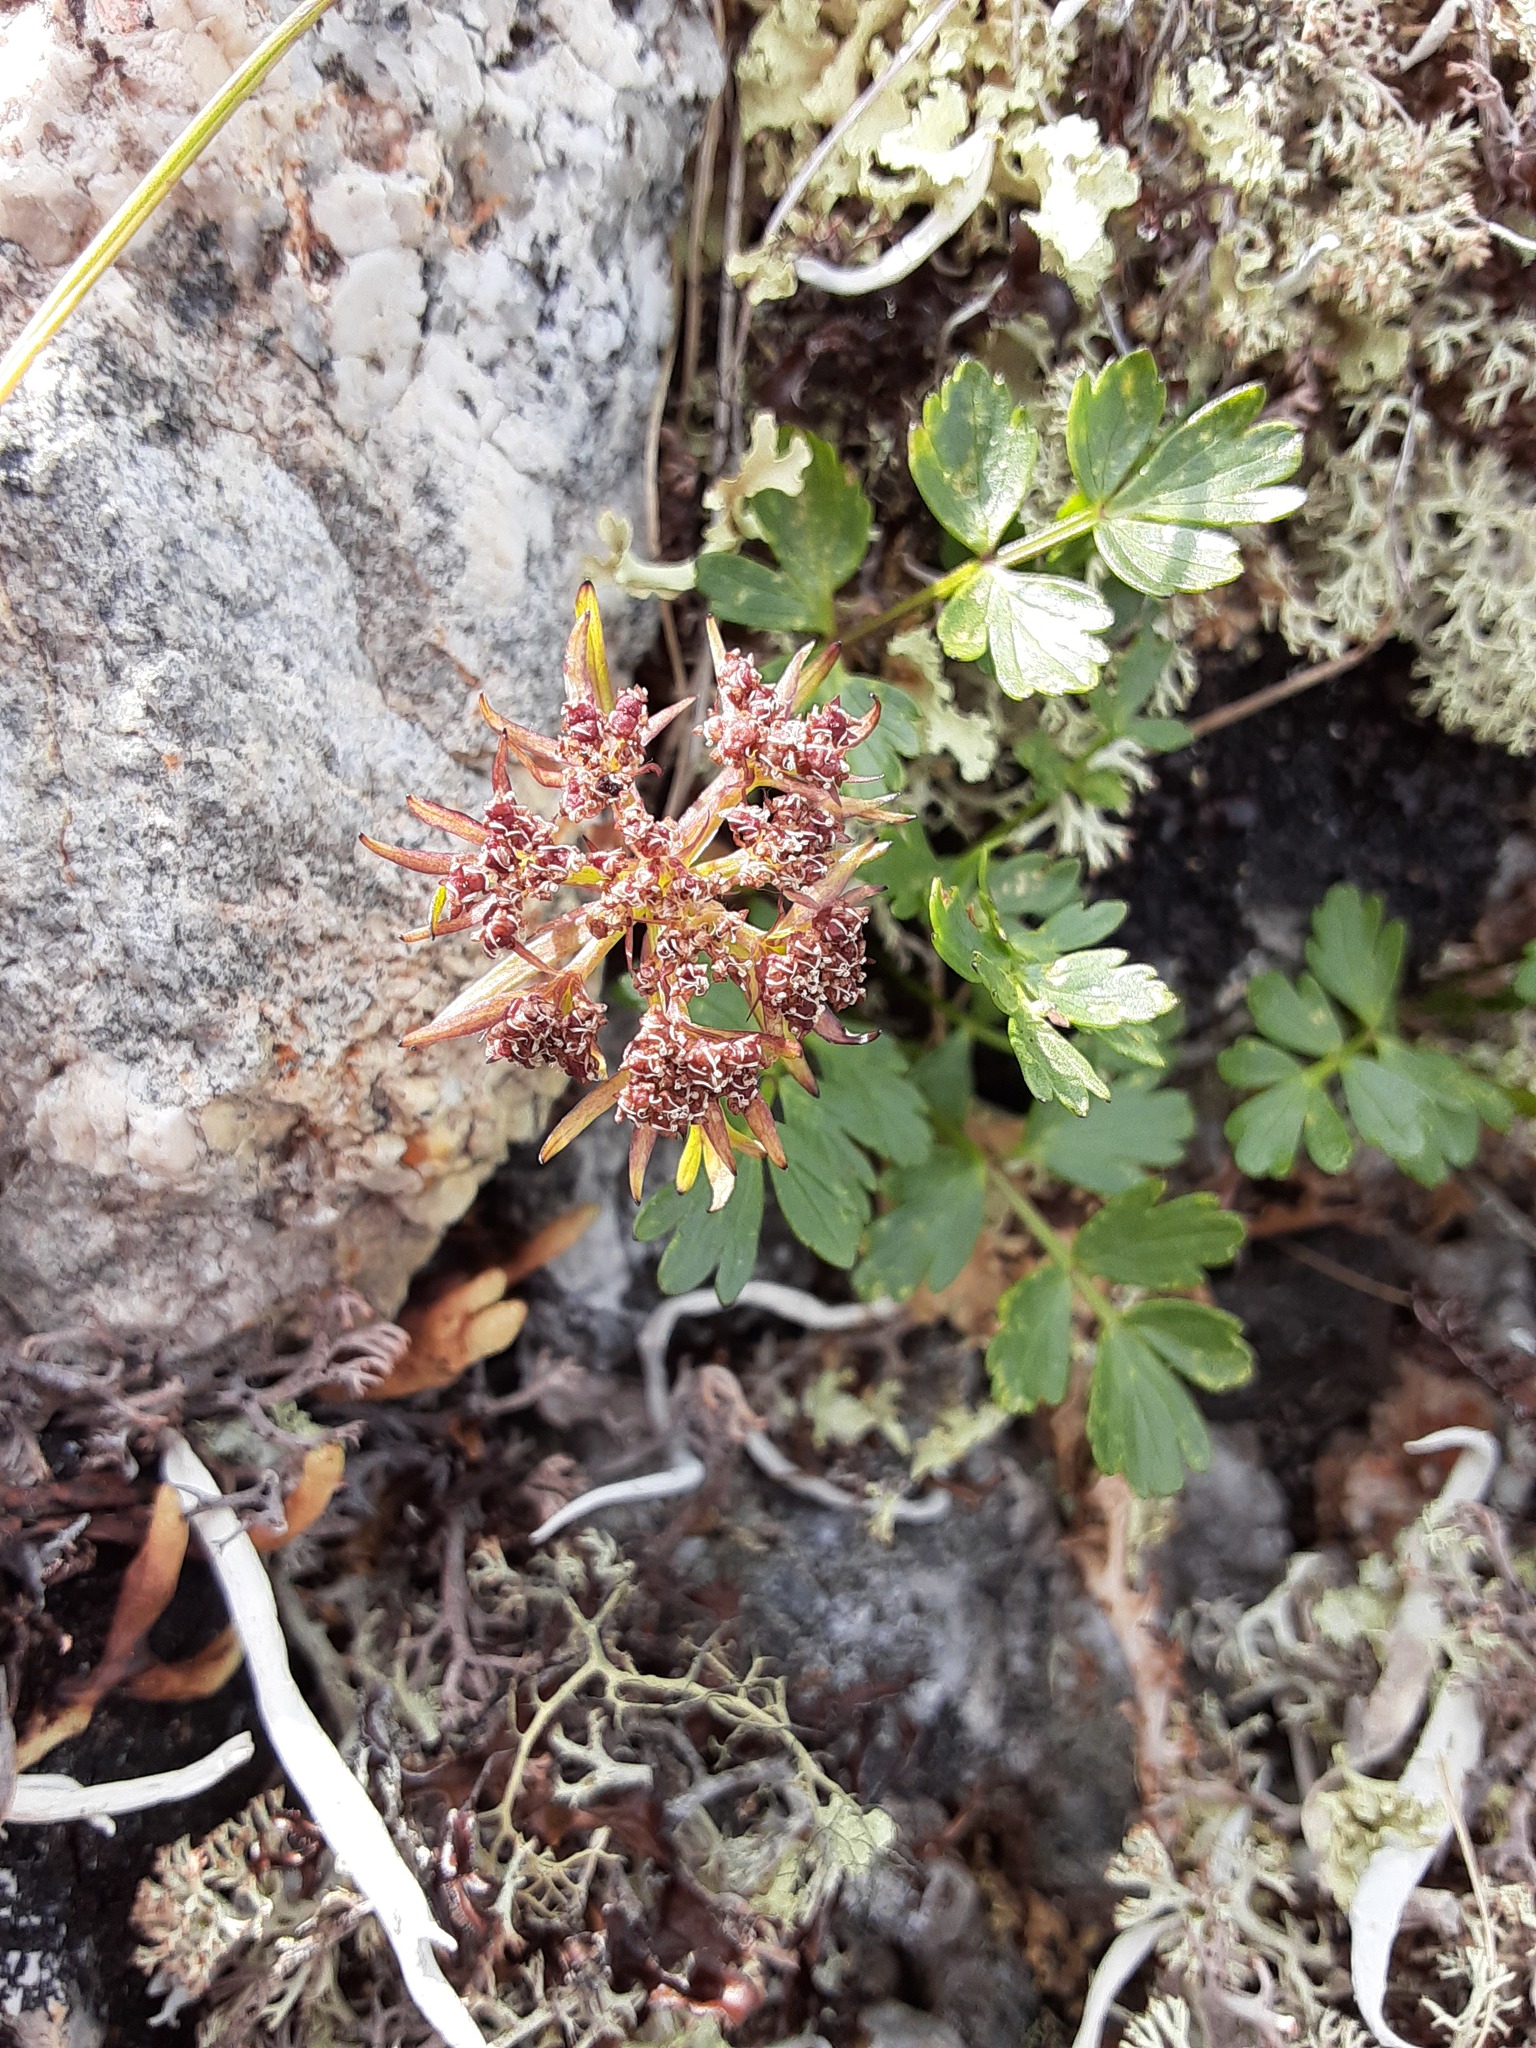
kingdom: Plantae
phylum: Tracheophyta
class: Magnoliopsida
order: Apiales
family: Apiaceae
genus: Orumbella
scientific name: Orumbella macounii
